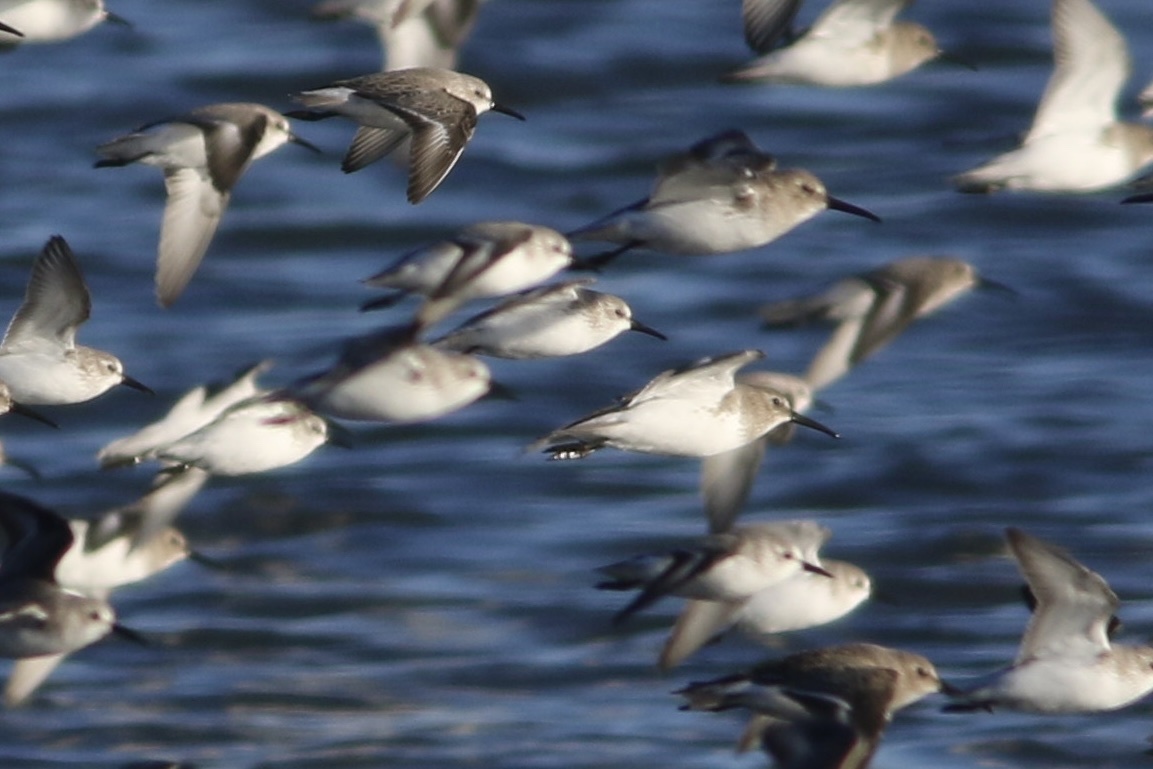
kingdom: Animalia
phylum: Chordata
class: Aves
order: Charadriiformes
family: Scolopacidae
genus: Calidris
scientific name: Calidris mauri
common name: Western sandpiper
